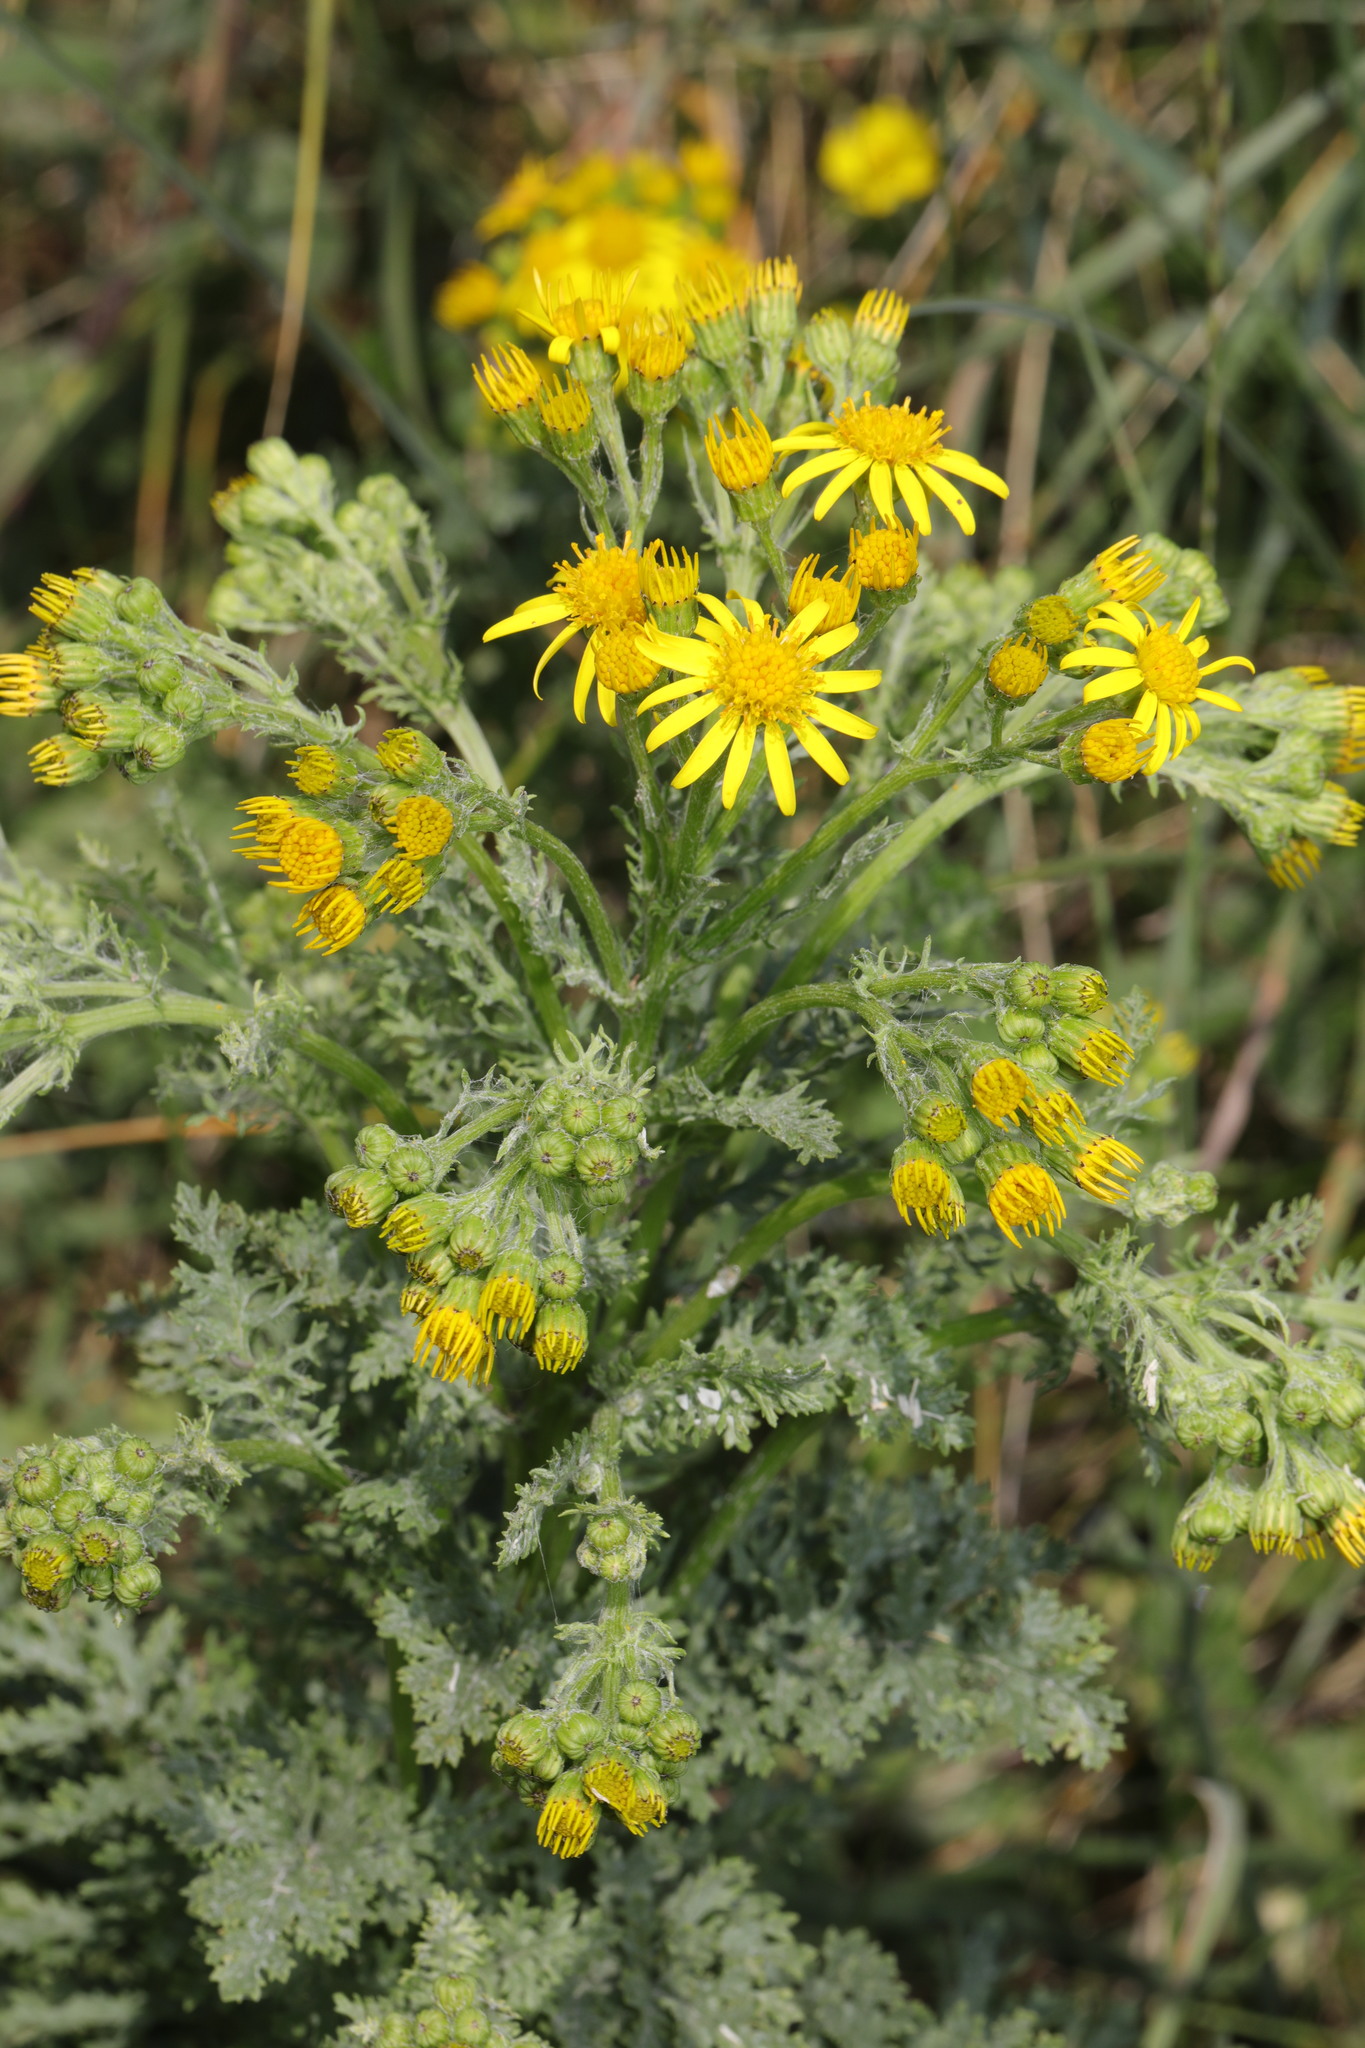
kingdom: Plantae
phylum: Tracheophyta
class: Magnoliopsida
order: Asterales
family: Asteraceae
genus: Jacobaea
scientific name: Jacobaea vulgaris
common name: Stinking willie
